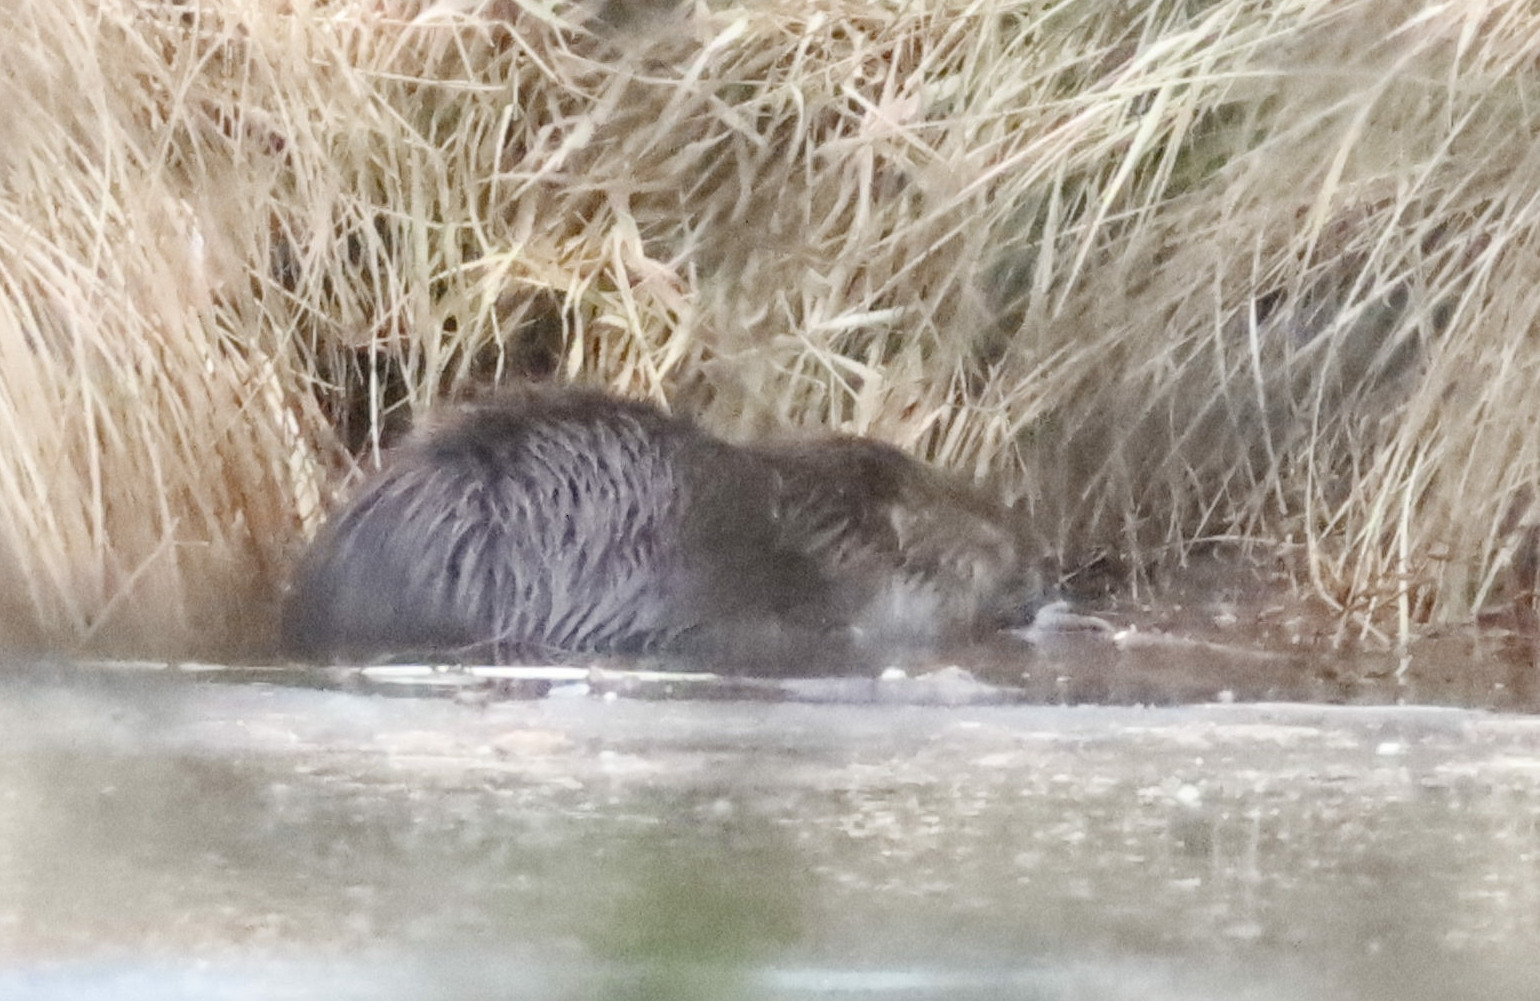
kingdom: Animalia
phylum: Chordata
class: Mammalia
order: Rodentia
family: Castoridae
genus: Castor
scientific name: Castor canadensis
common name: American beaver
